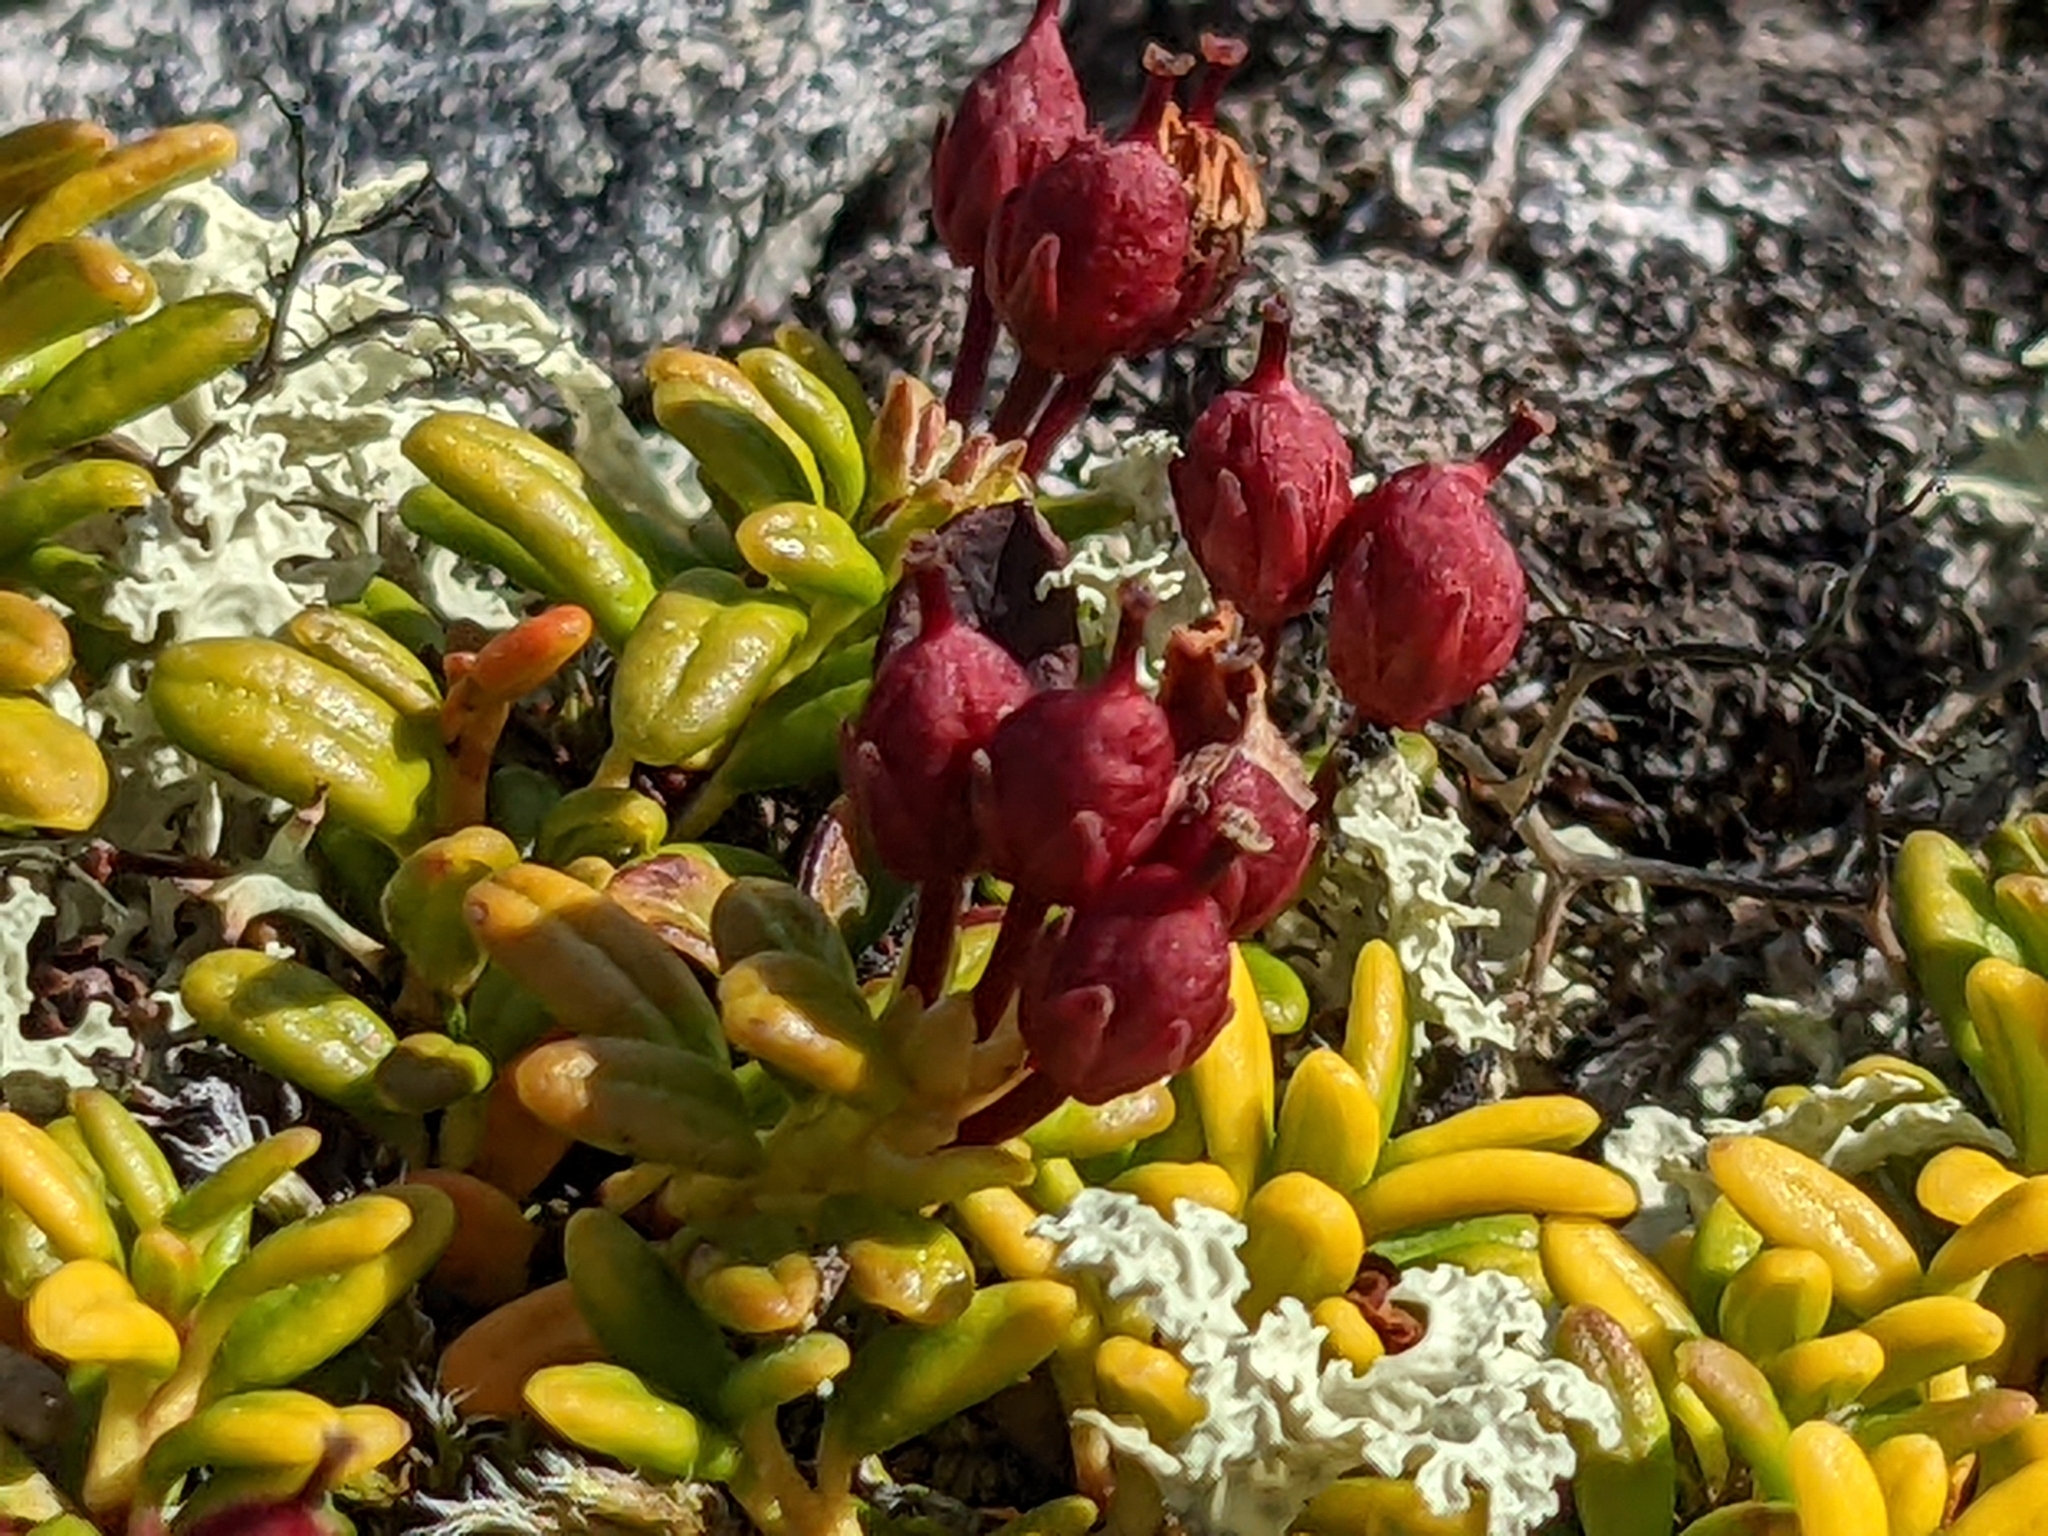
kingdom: Plantae
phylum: Tracheophyta
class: Magnoliopsida
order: Ericales
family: Ericaceae
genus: Kalmia
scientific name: Kalmia procumbens
